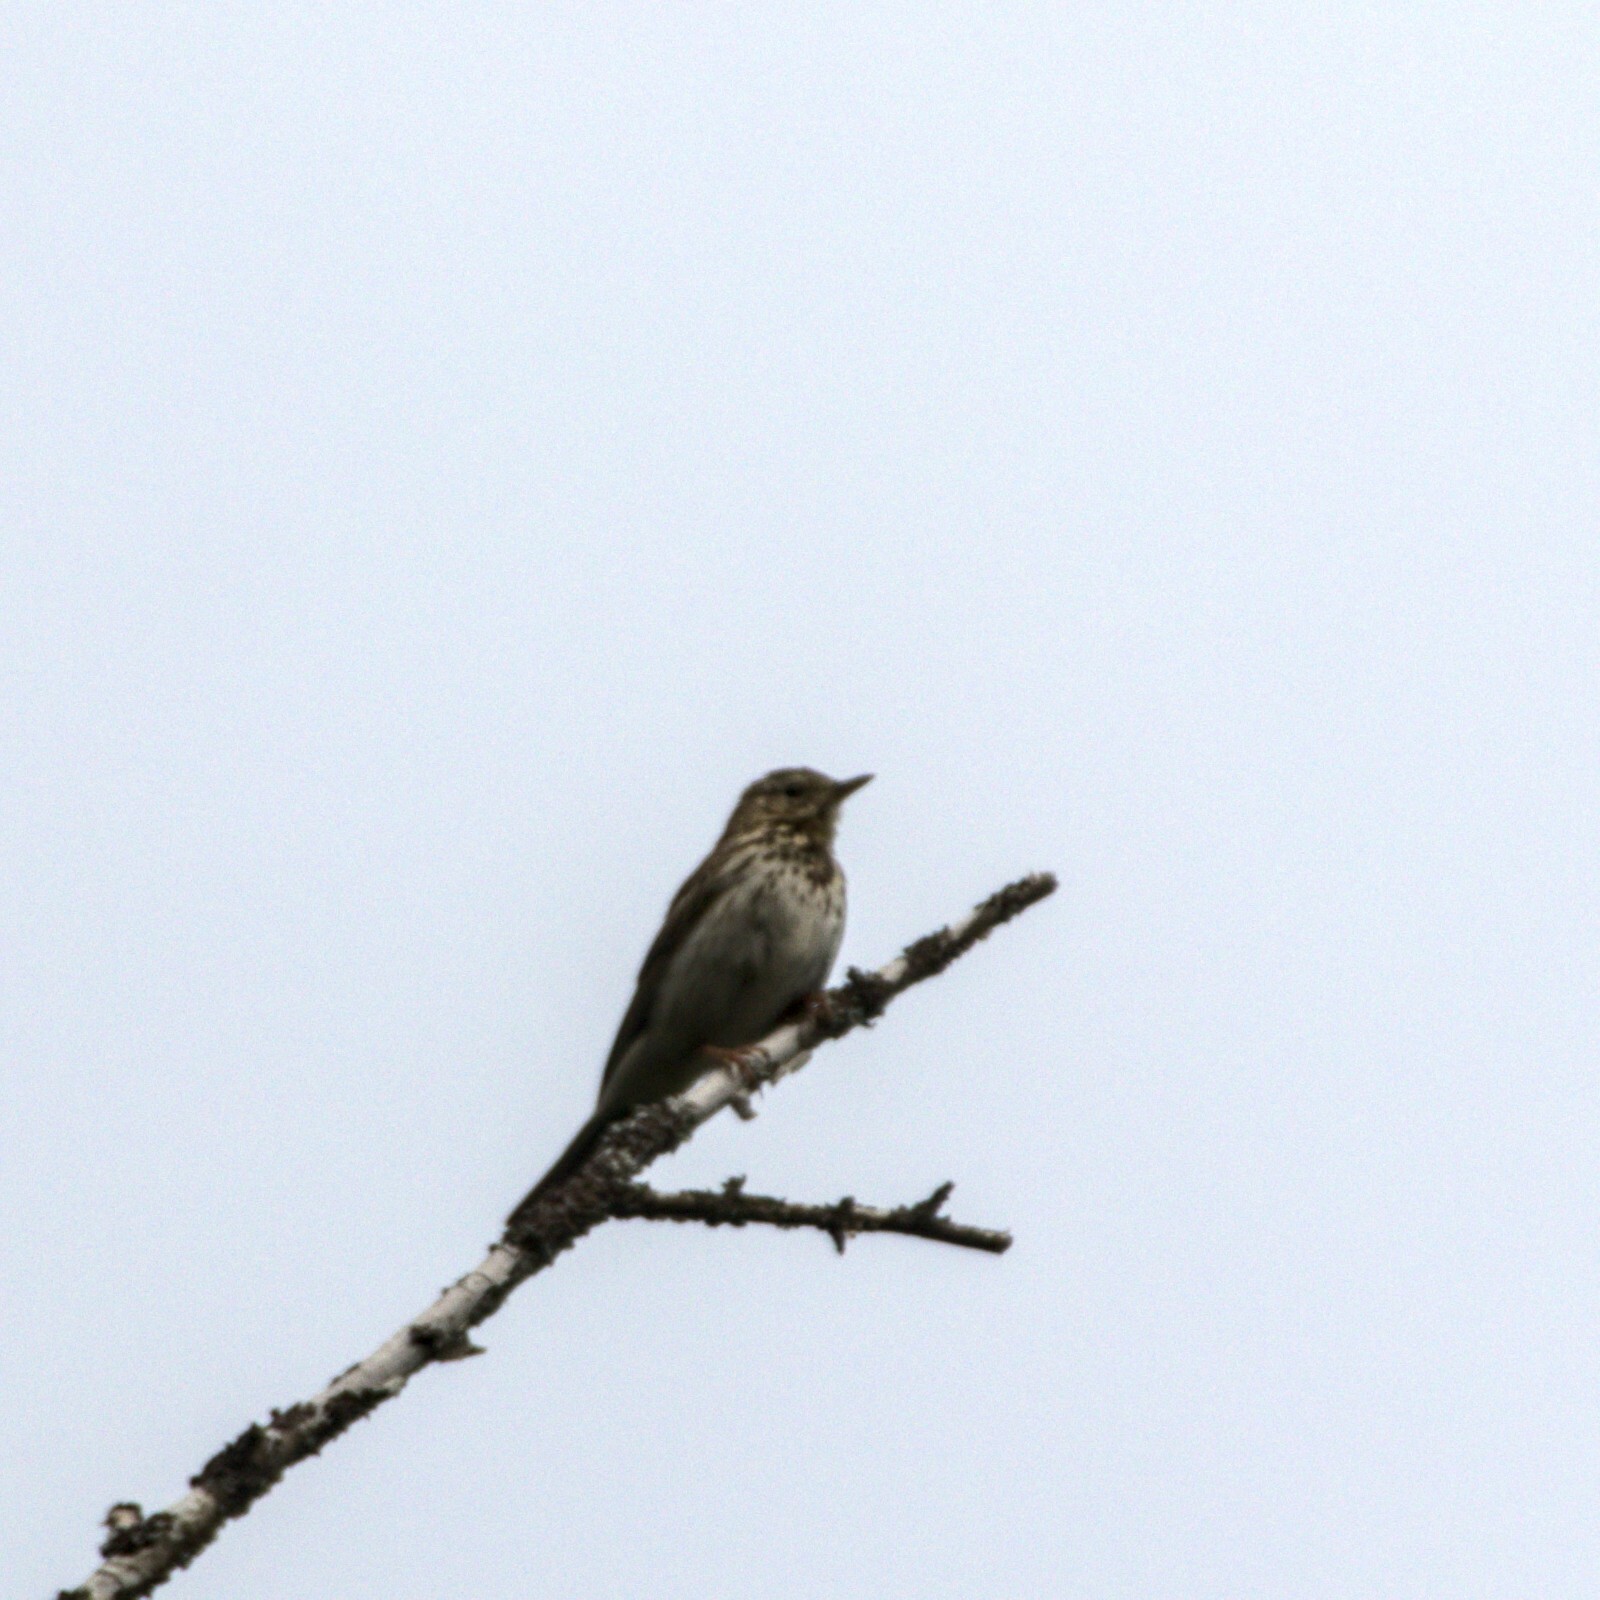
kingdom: Animalia
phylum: Chordata
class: Aves
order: Passeriformes
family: Motacillidae
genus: Anthus
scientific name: Anthus trivialis
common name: Tree pipit
